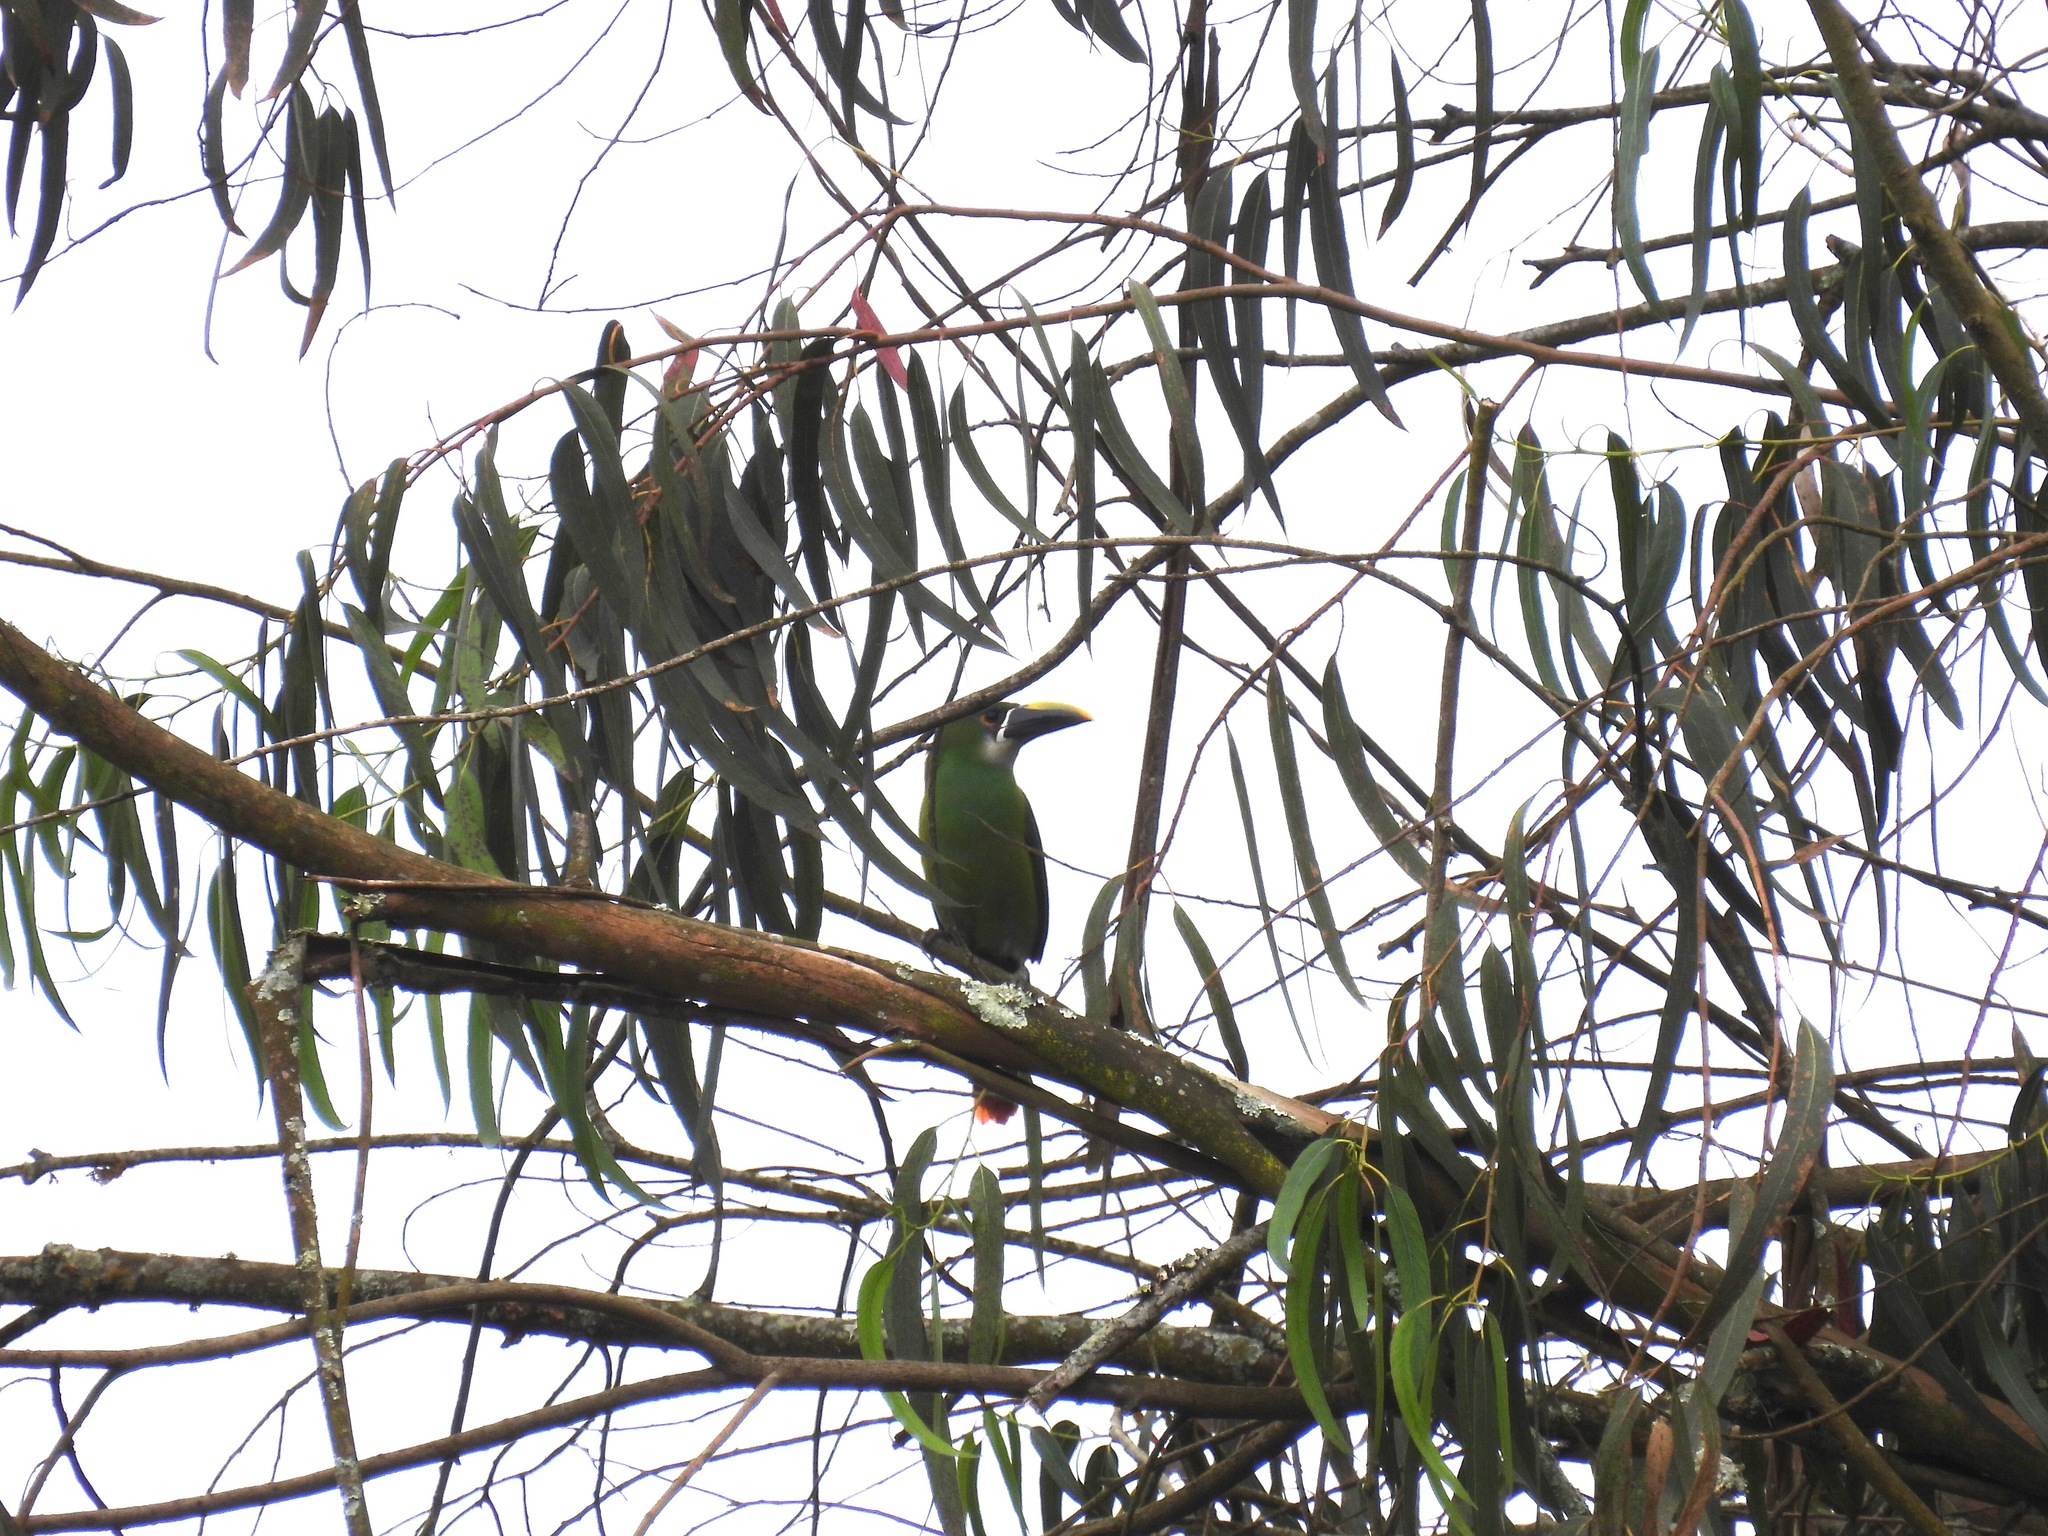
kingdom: Animalia
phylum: Chordata
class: Aves
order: Piciformes
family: Ramphastidae
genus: Aulacorhynchus
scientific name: Aulacorhynchus albivitta
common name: White-throated toucanet
